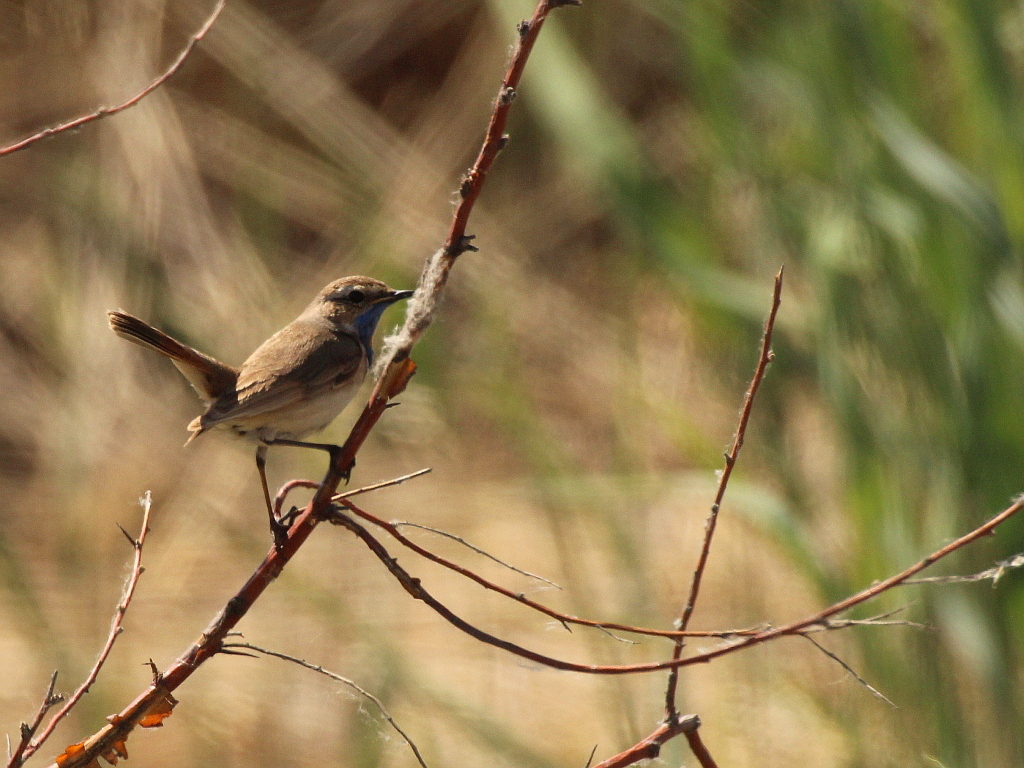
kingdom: Animalia
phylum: Chordata
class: Aves
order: Passeriformes
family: Muscicapidae
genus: Luscinia
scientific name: Luscinia svecica
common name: Bluethroat
